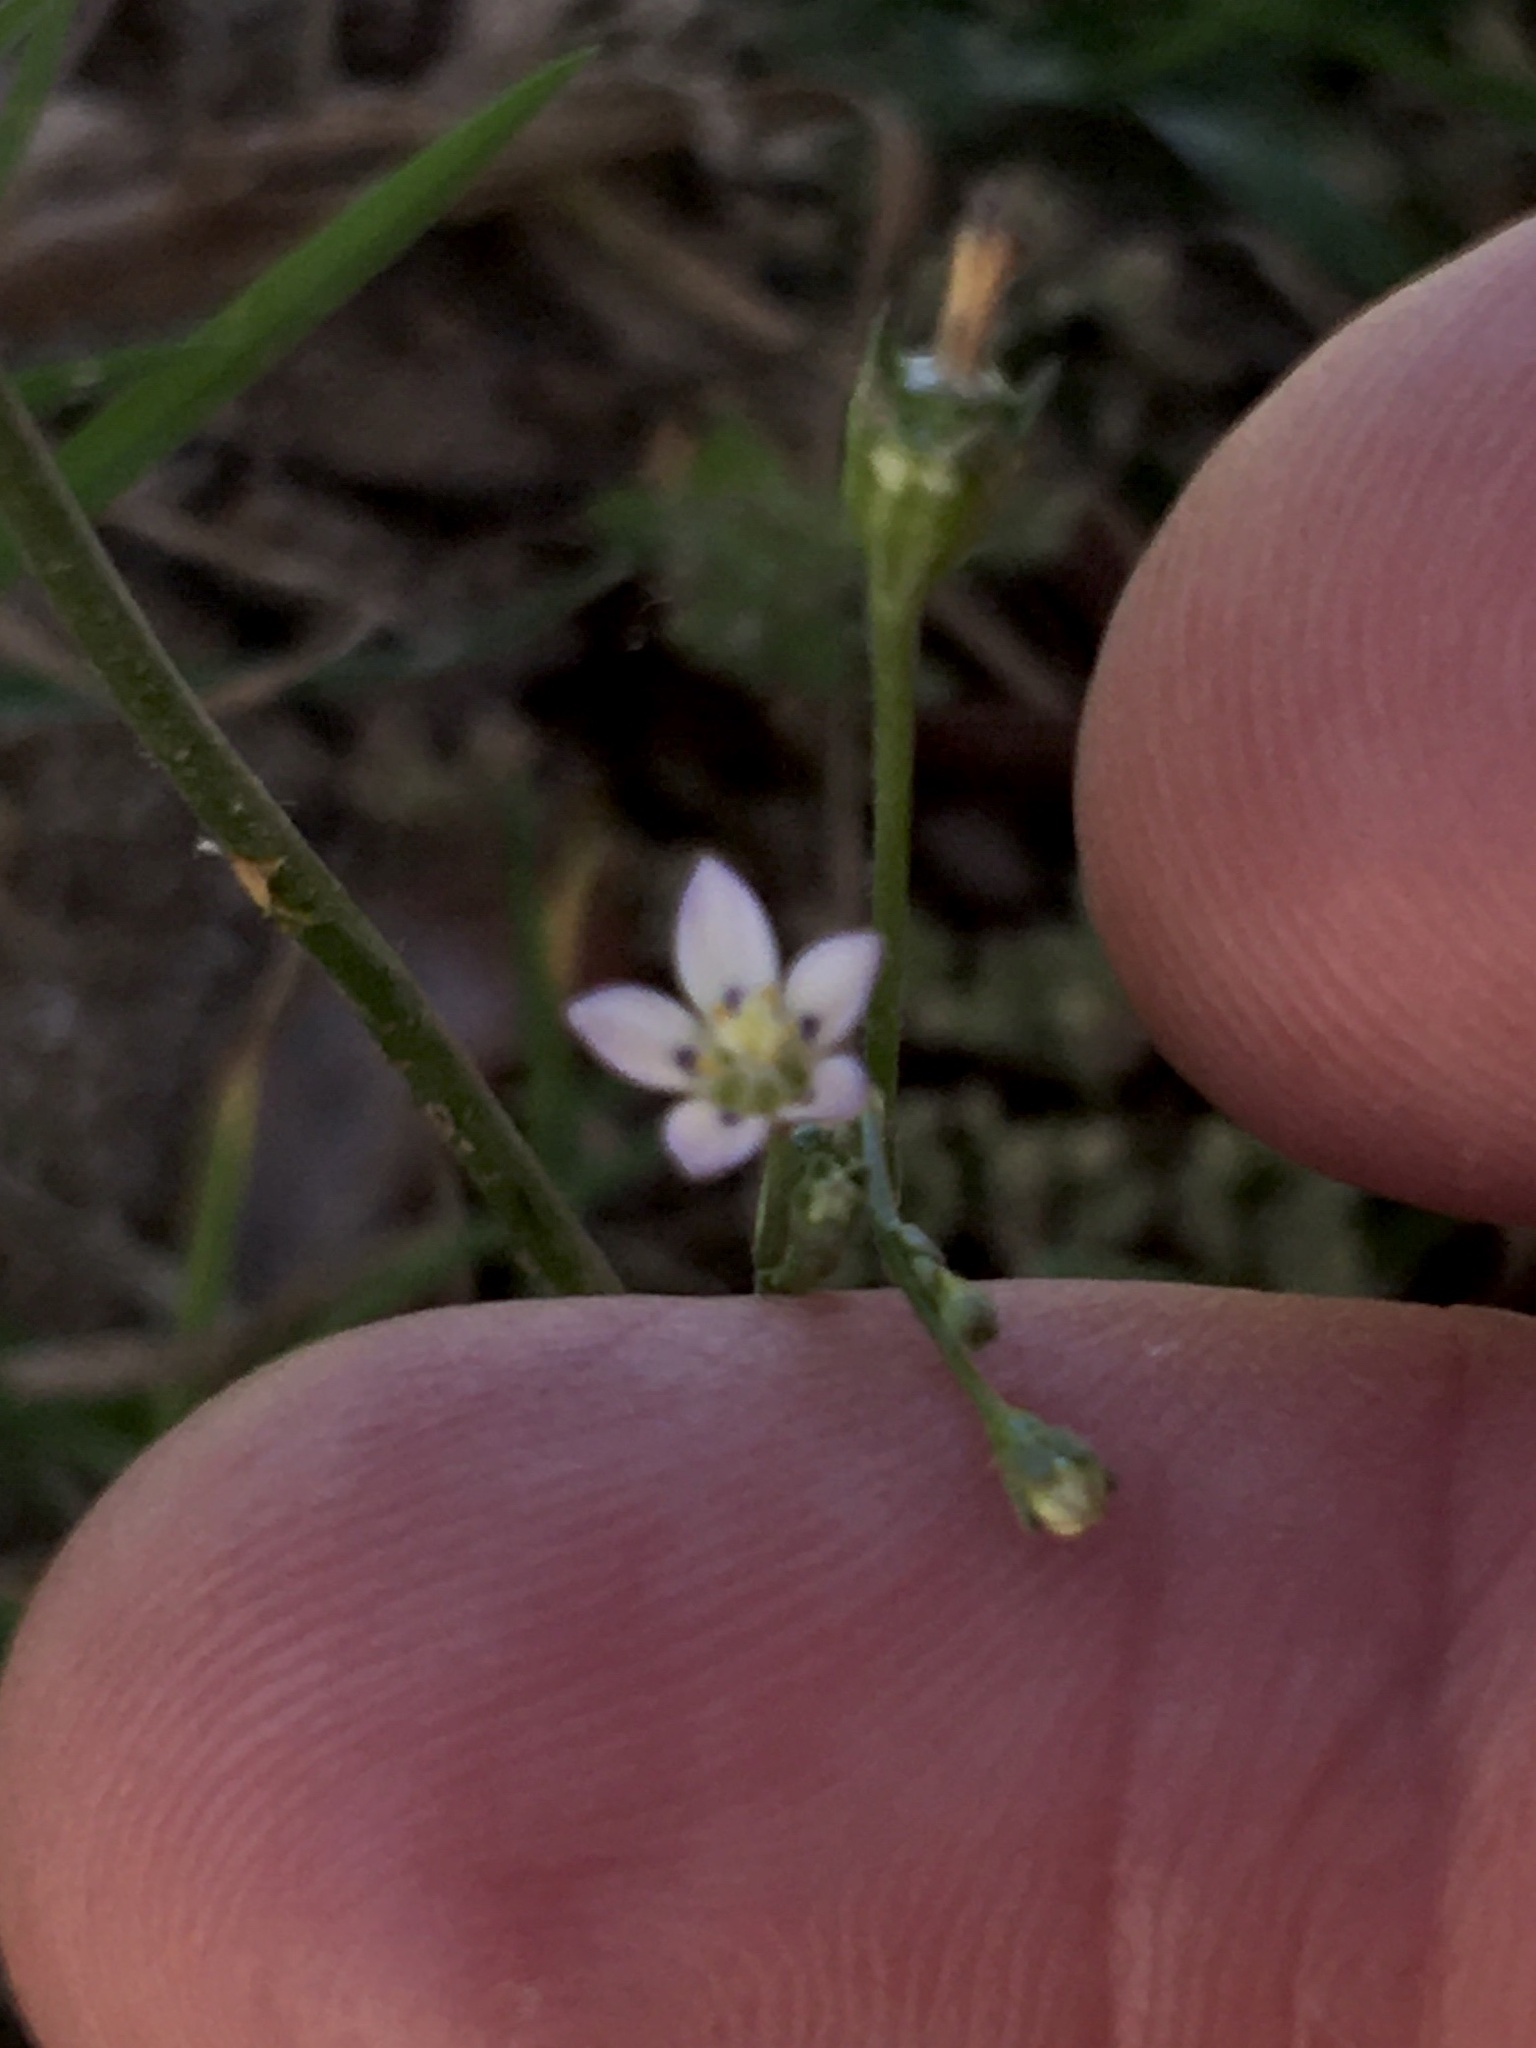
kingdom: Plantae
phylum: Tracheophyta
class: Magnoliopsida
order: Asterales
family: Campanulaceae
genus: Wahlenbergia
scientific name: Wahlenbergia androsacea
